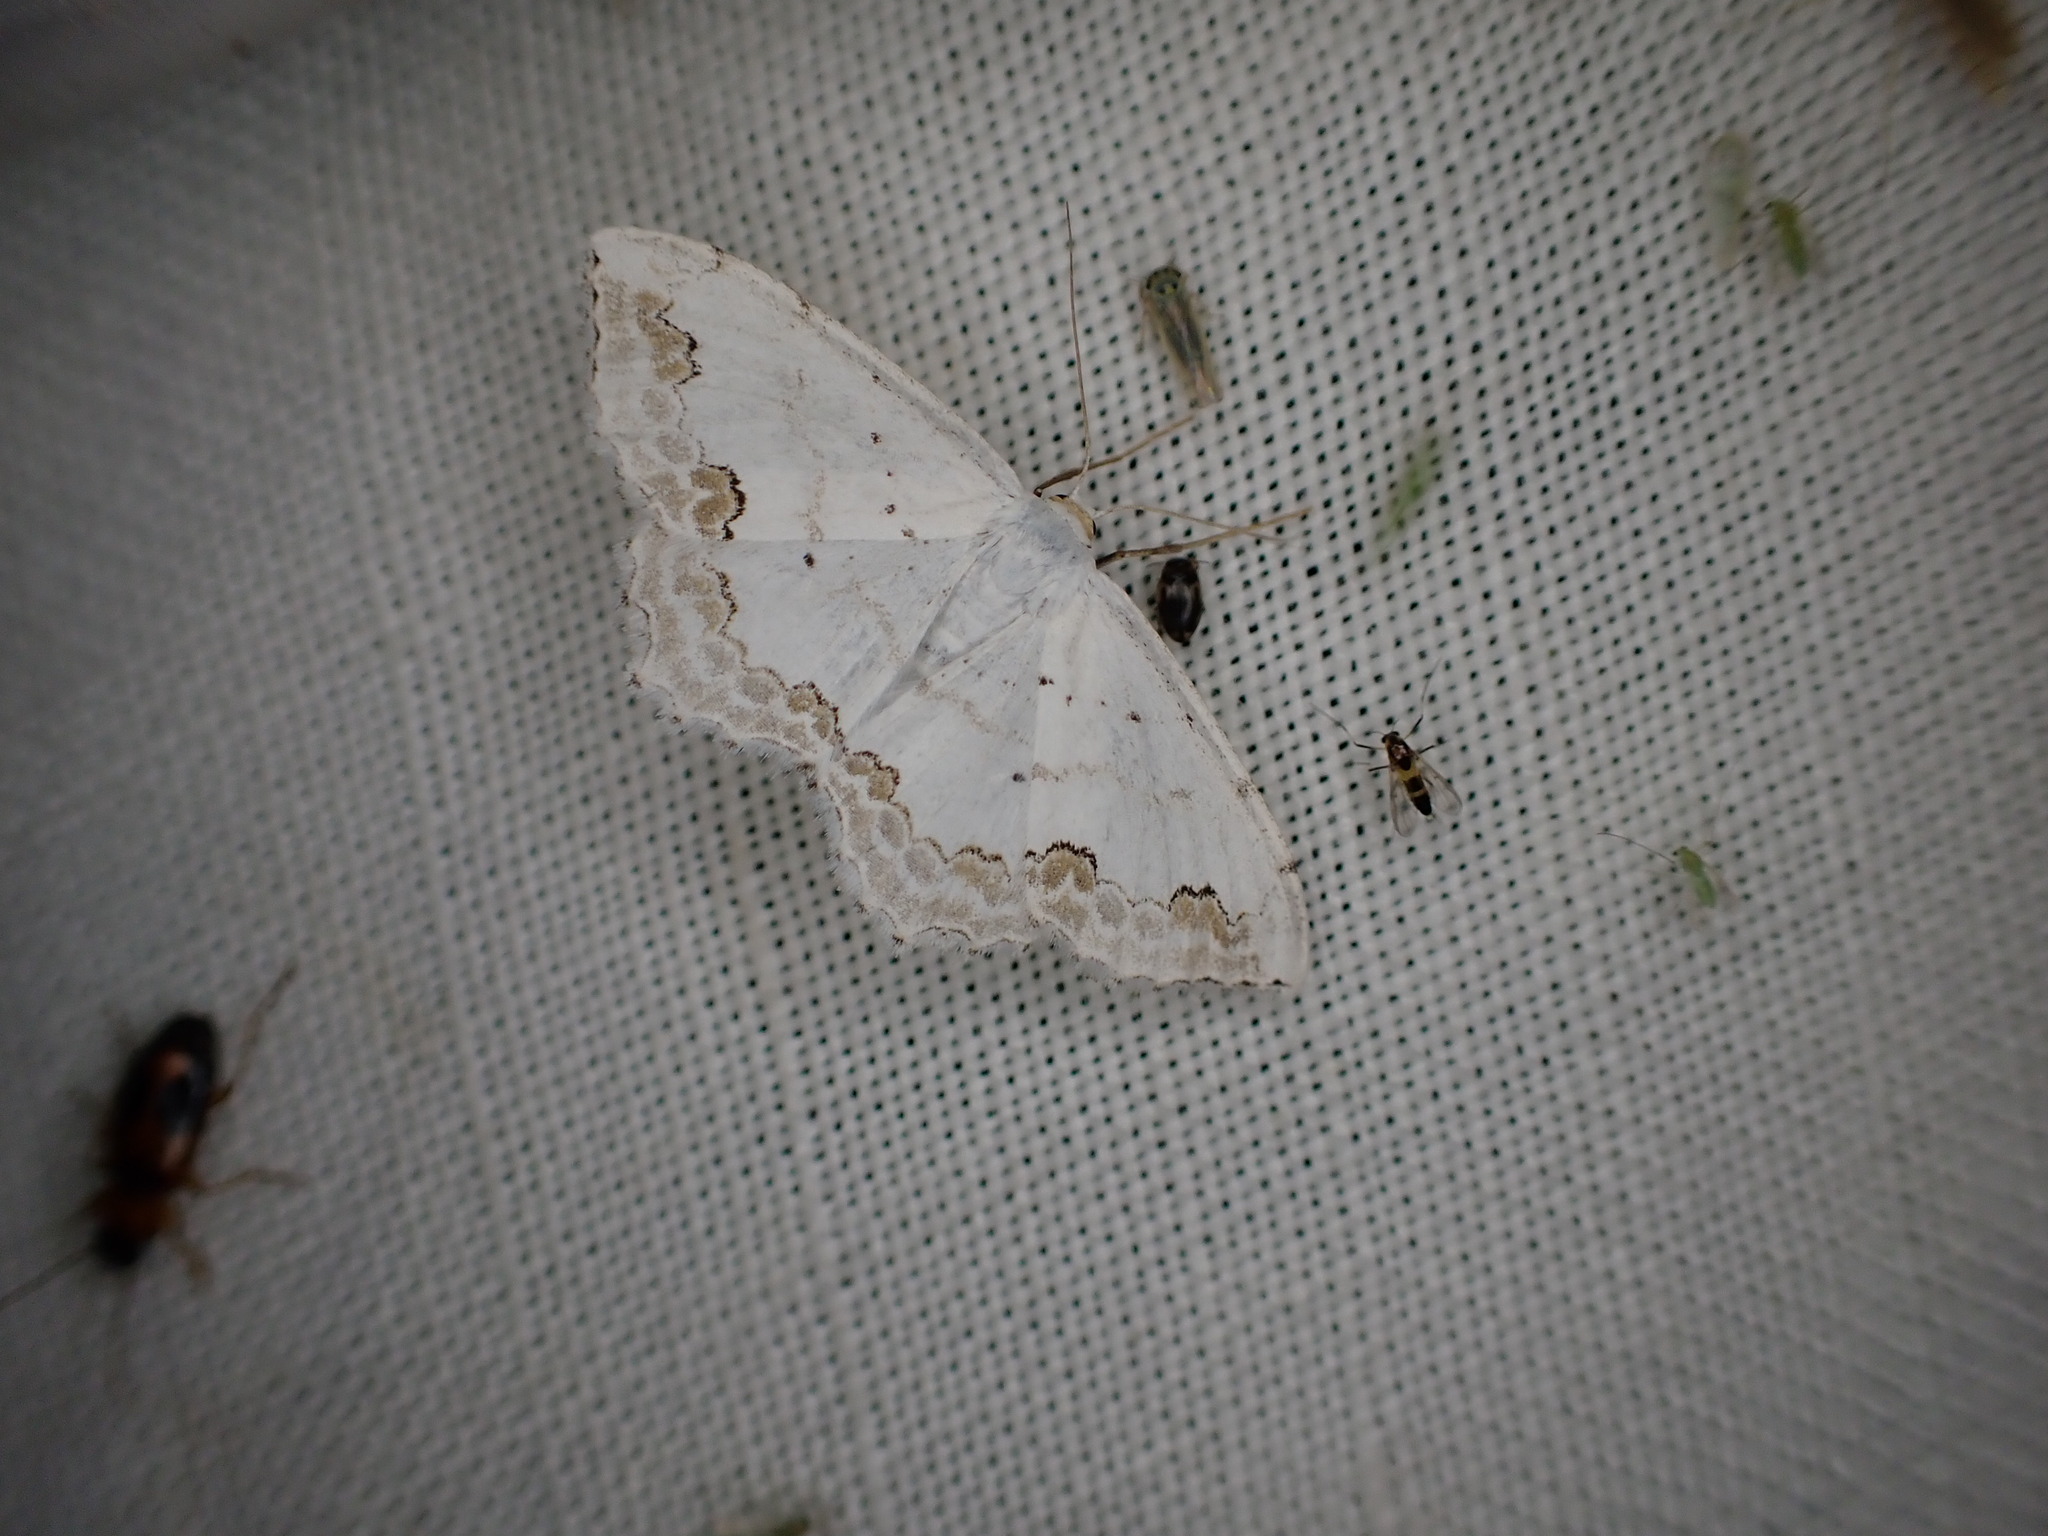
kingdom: Animalia
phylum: Arthropoda
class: Insecta
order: Lepidoptera
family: Geometridae
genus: Scopula
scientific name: Scopula ornata
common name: Lace border
